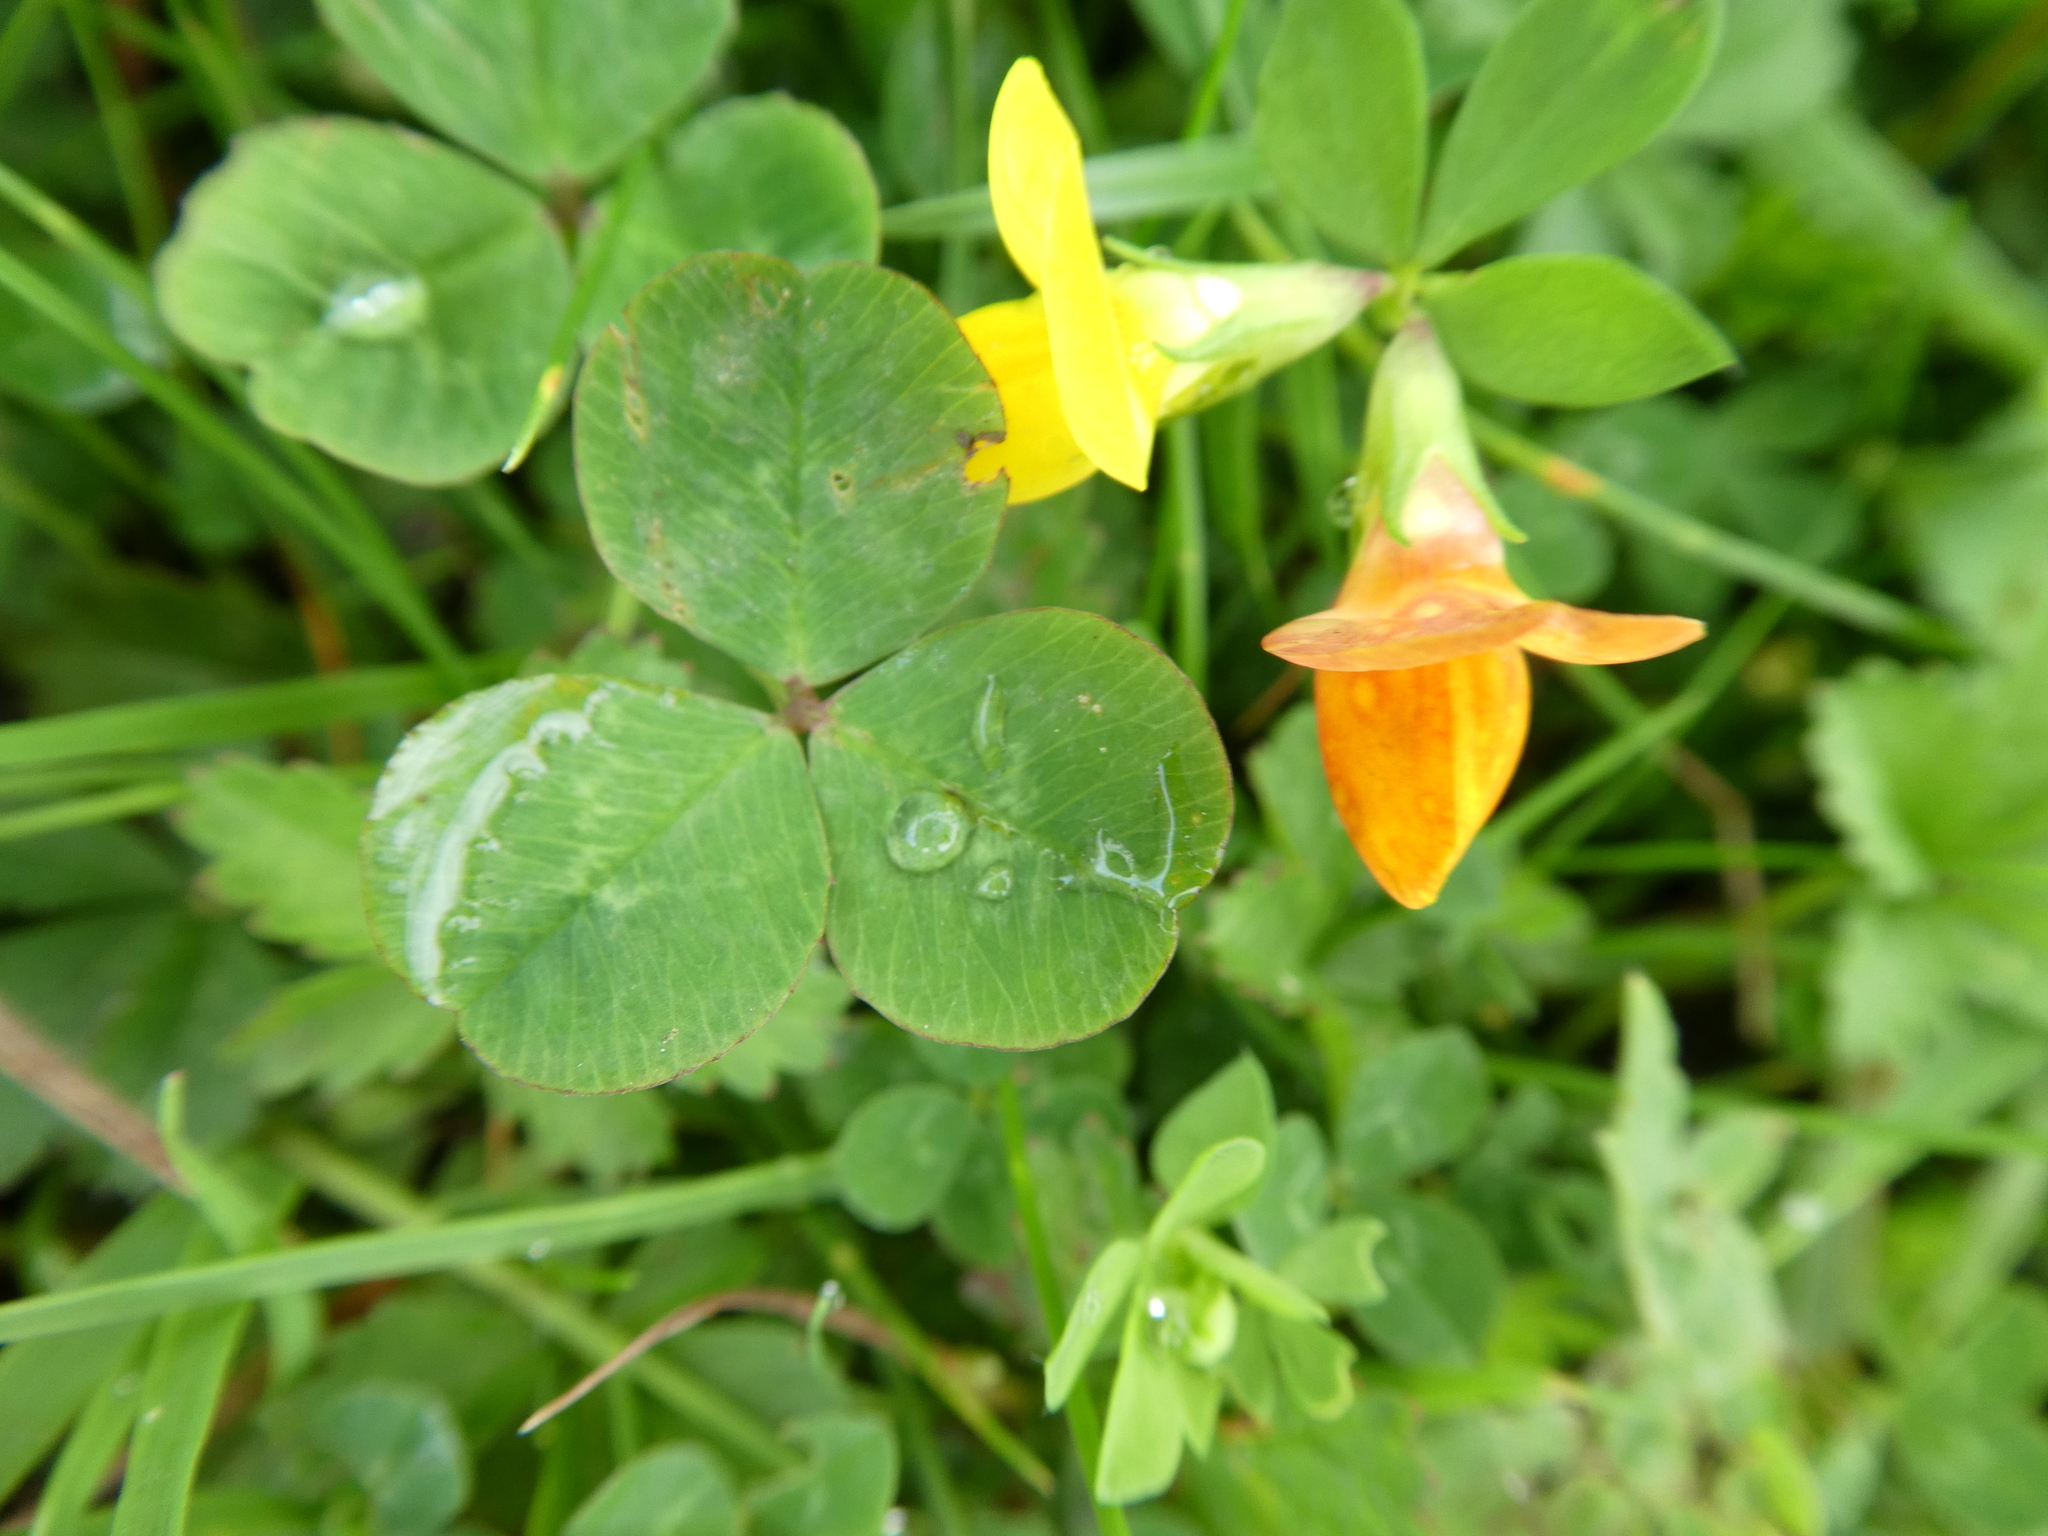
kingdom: Plantae
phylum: Tracheophyta
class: Magnoliopsida
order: Fabales
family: Fabaceae
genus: Lotus
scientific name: Lotus corniculatus
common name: Common bird's-foot-trefoil
